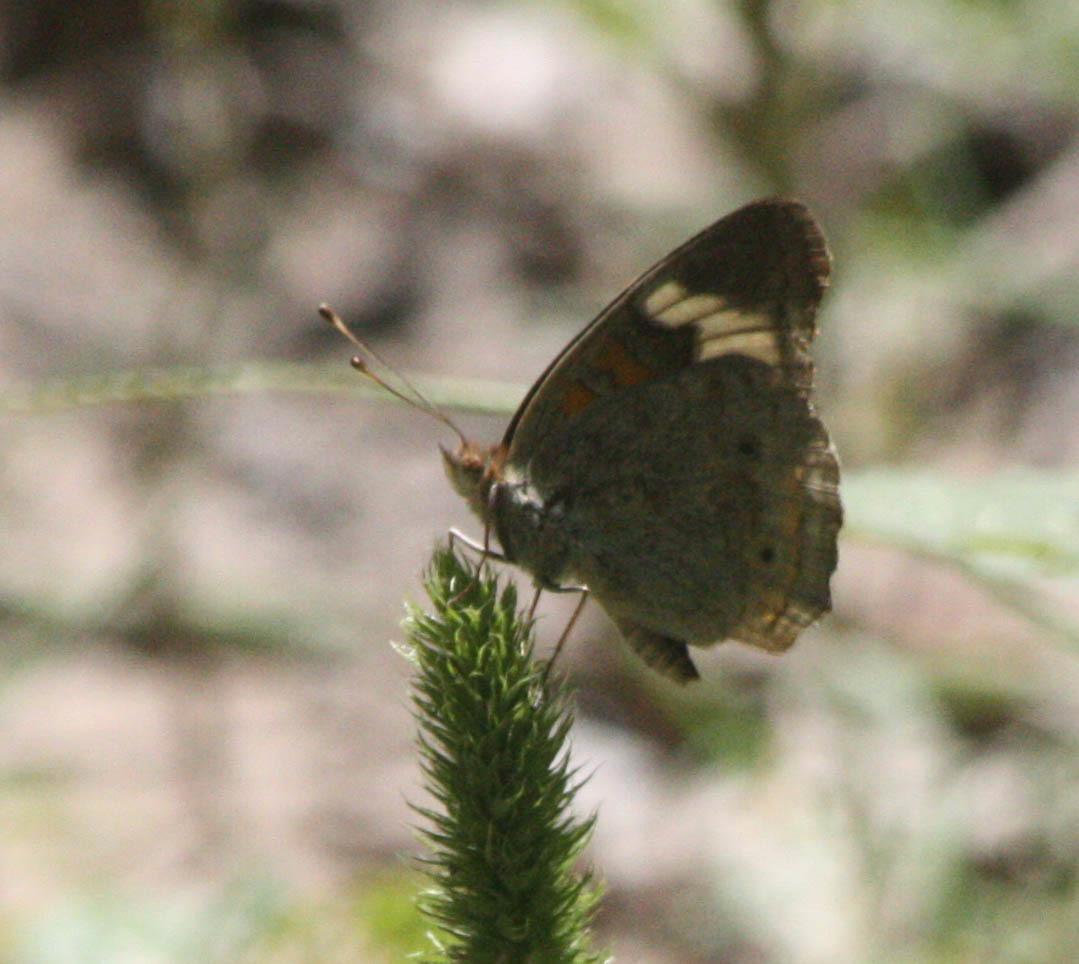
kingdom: Animalia
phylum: Arthropoda
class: Insecta
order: Lepidoptera
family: Nymphalidae
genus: Junonia
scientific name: Junonia grisea
